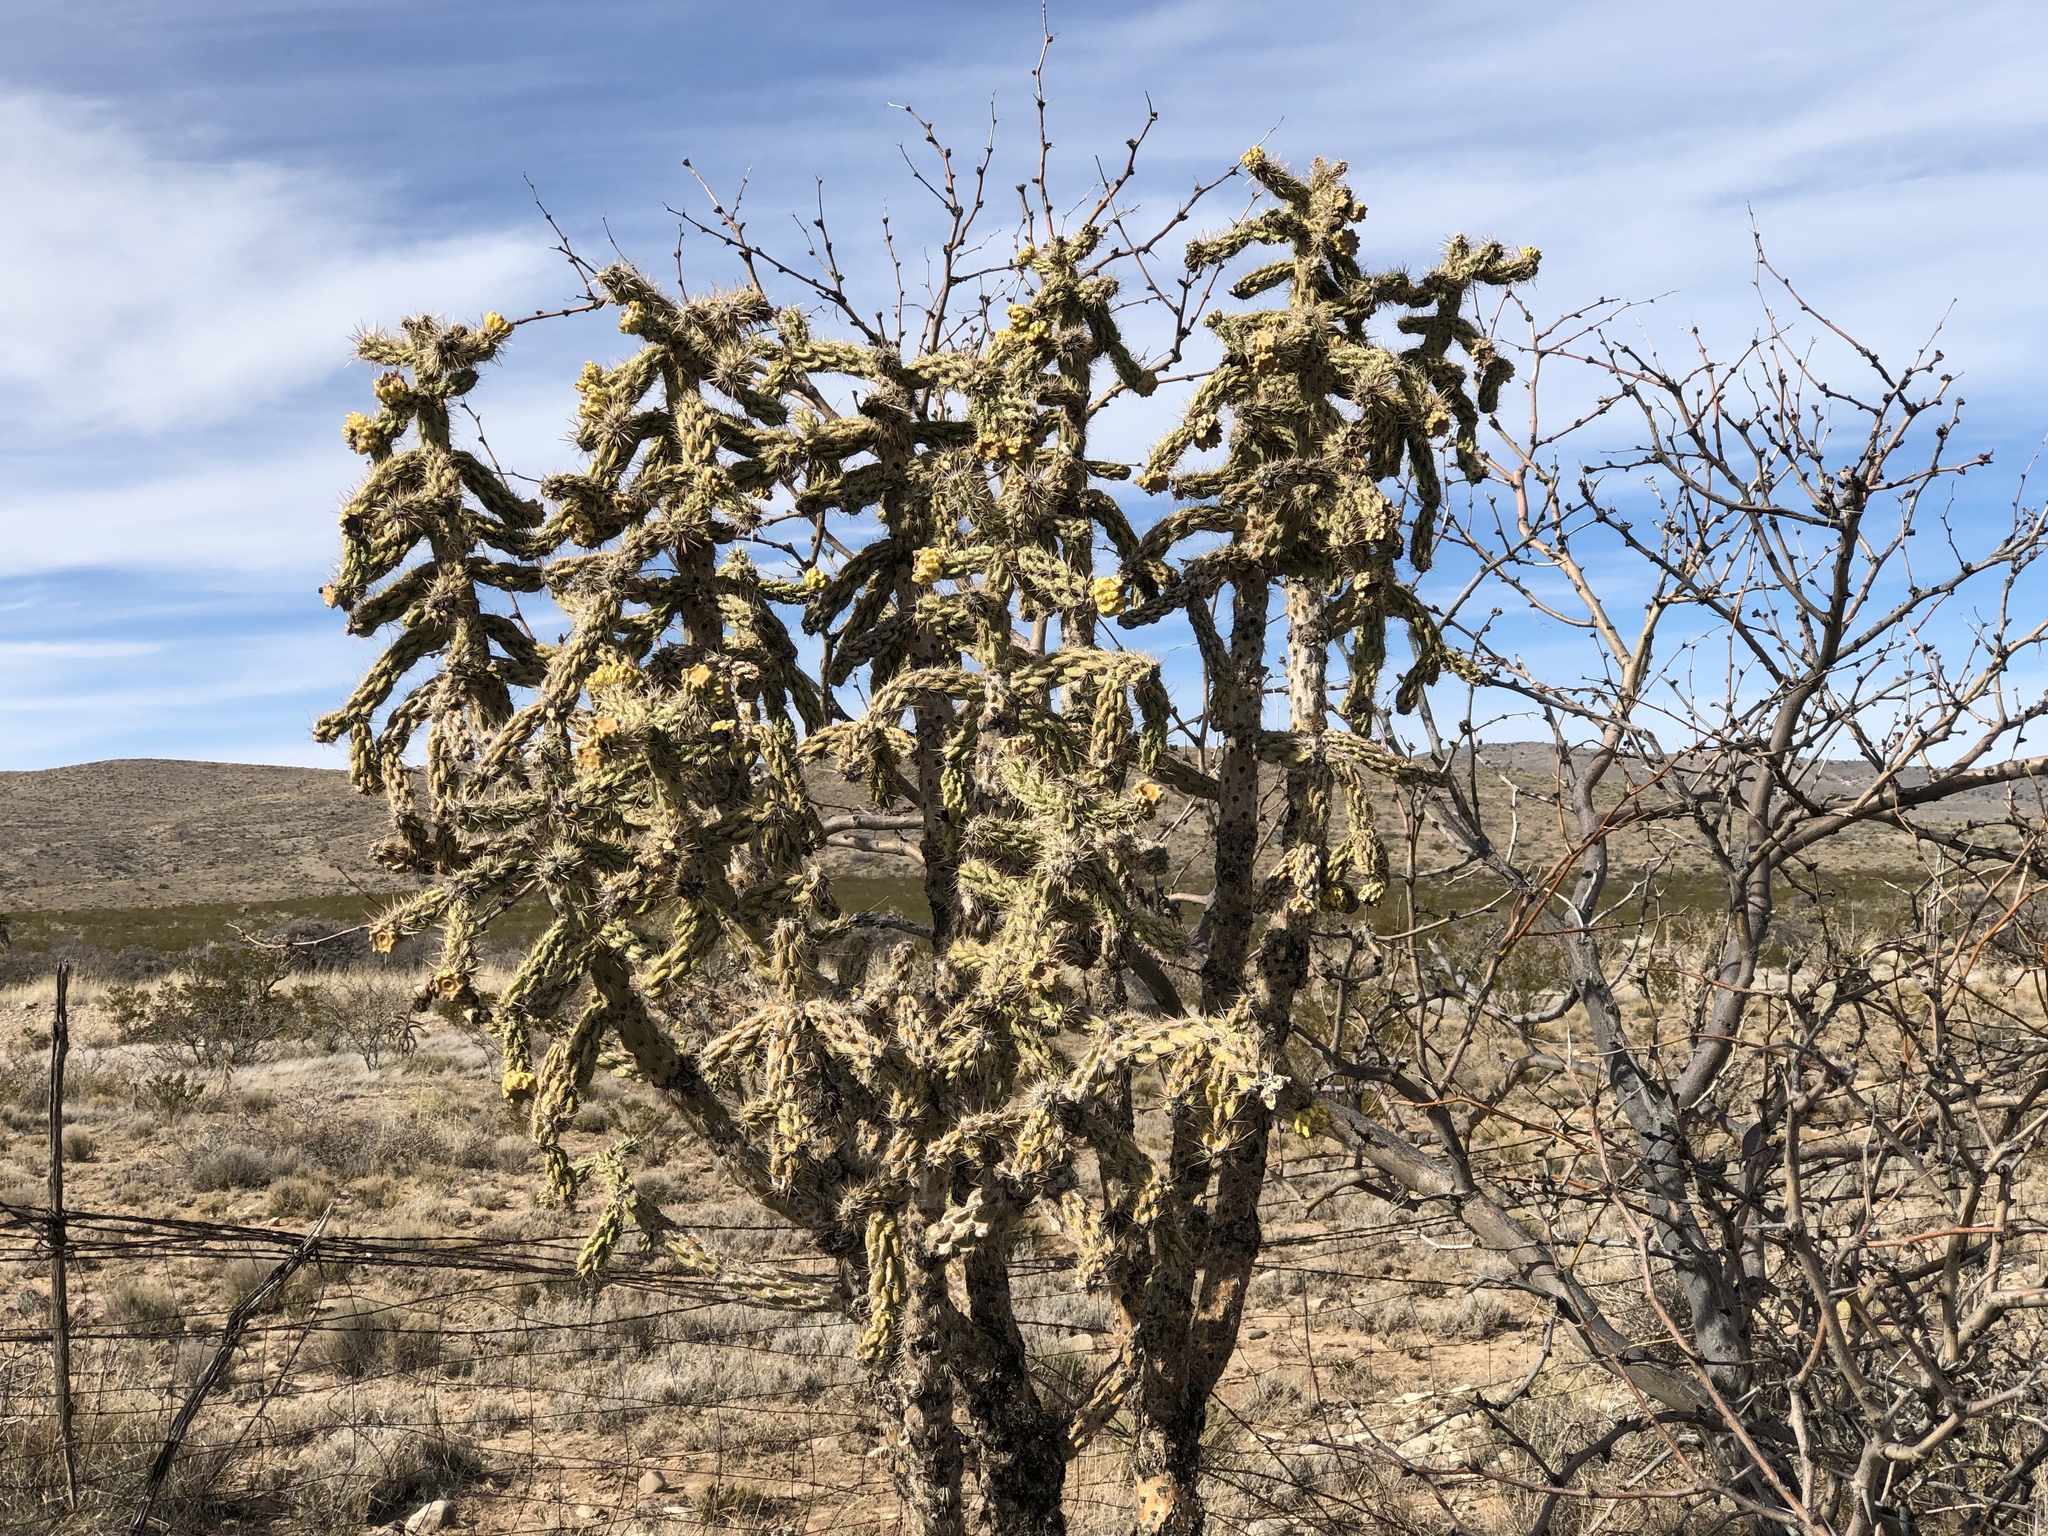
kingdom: Plantae
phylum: Tracheophyta
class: Magnoliopsida
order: Caryophyllales
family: Cactaceae
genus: Cylindropuntia
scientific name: Cylindropuntia imbricata
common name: Candelabrum cactus
